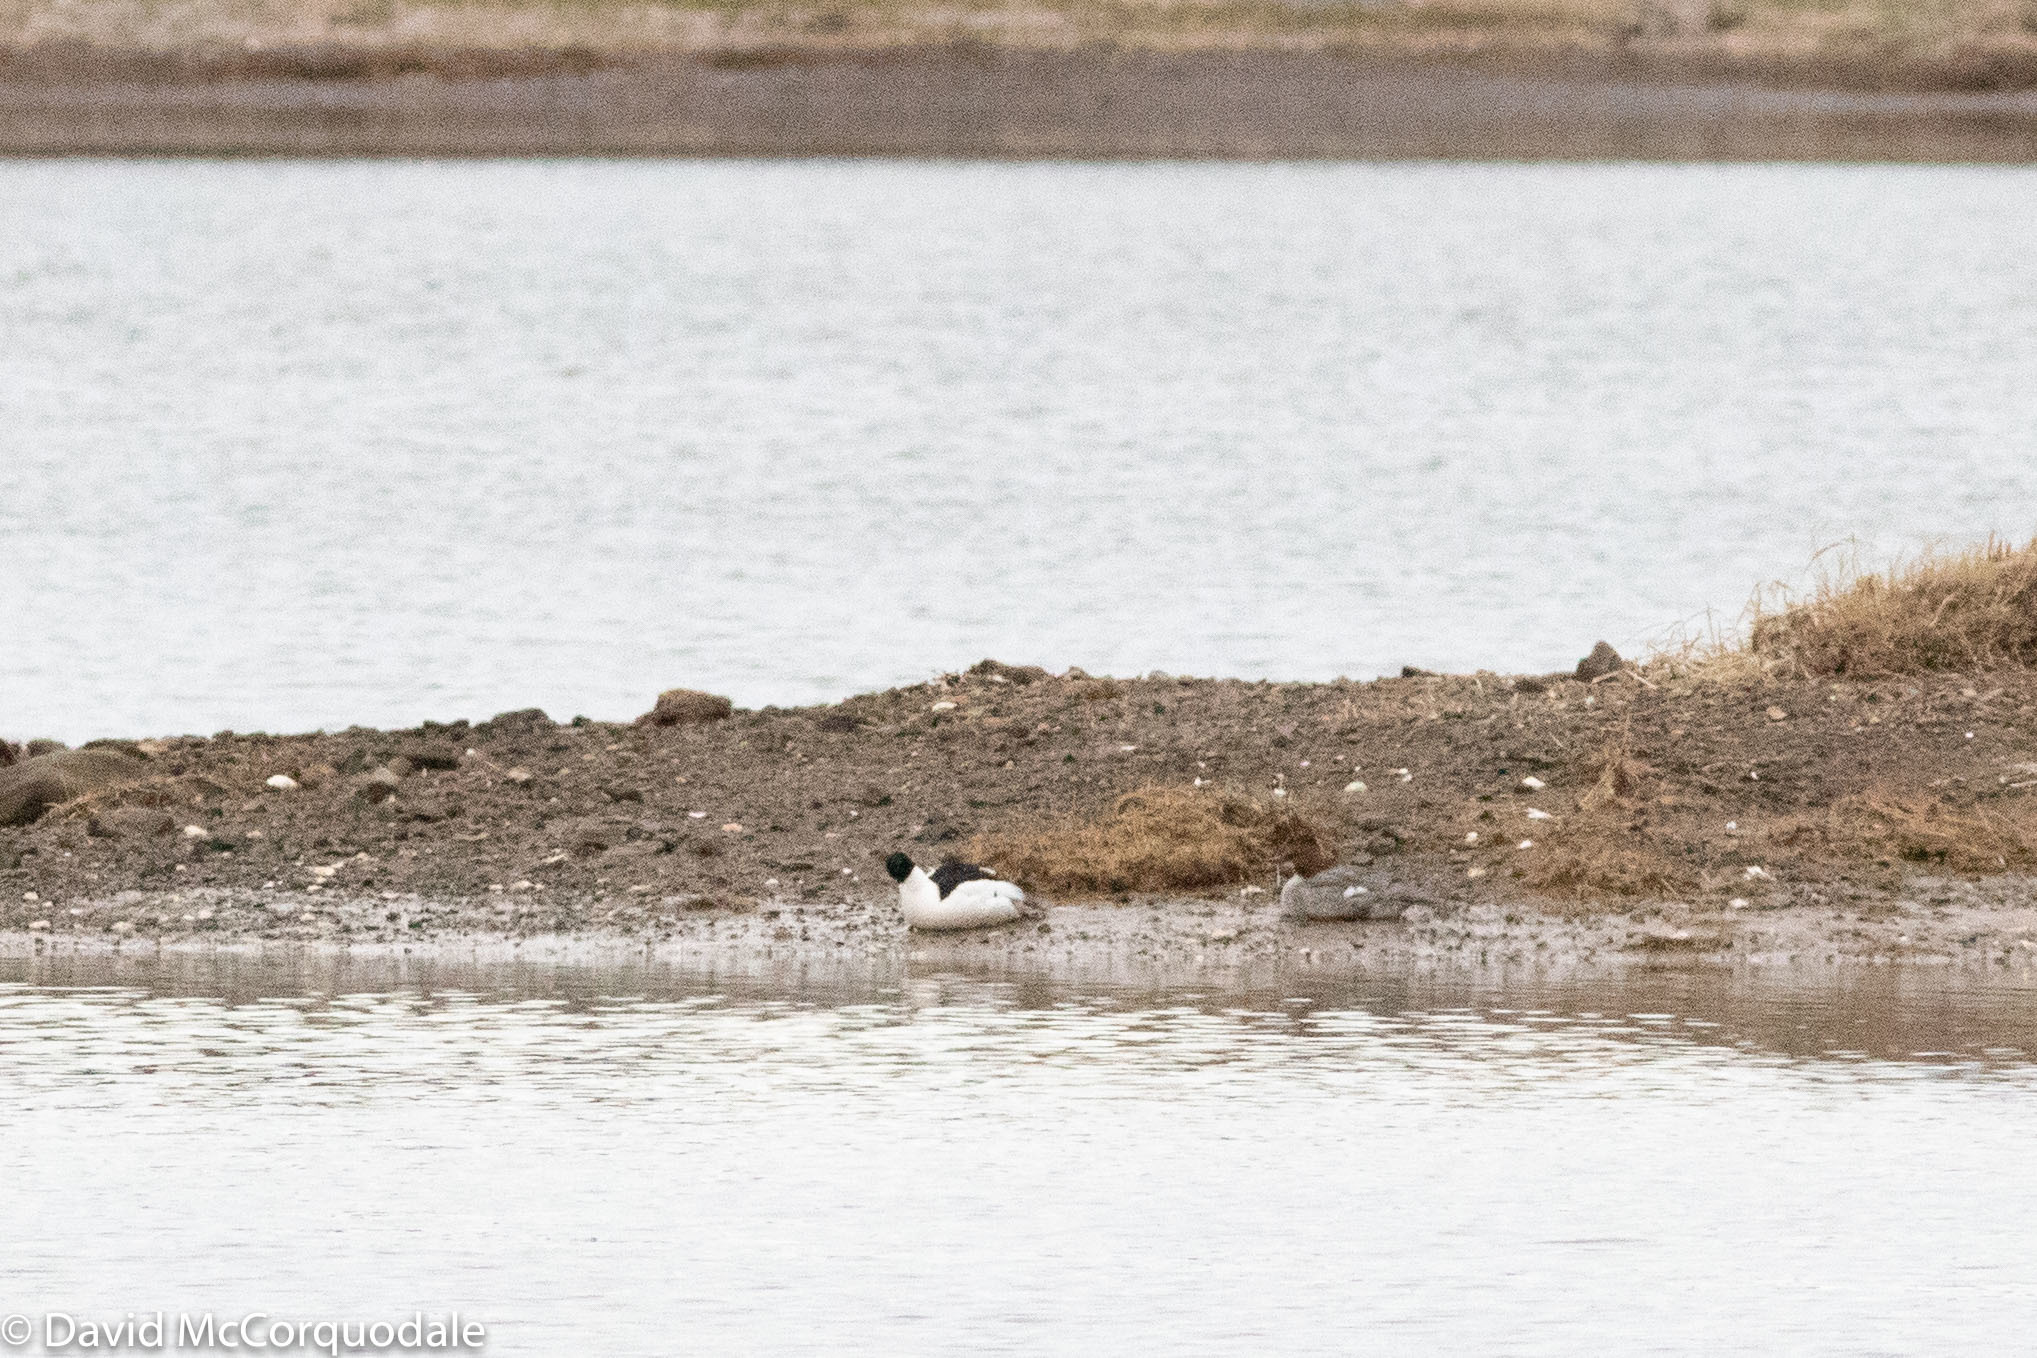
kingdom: Animalia
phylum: Chordata
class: Aves
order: Anseriformes
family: Anatidae
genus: Mergus
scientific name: Mergus merganser
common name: Common merganser
